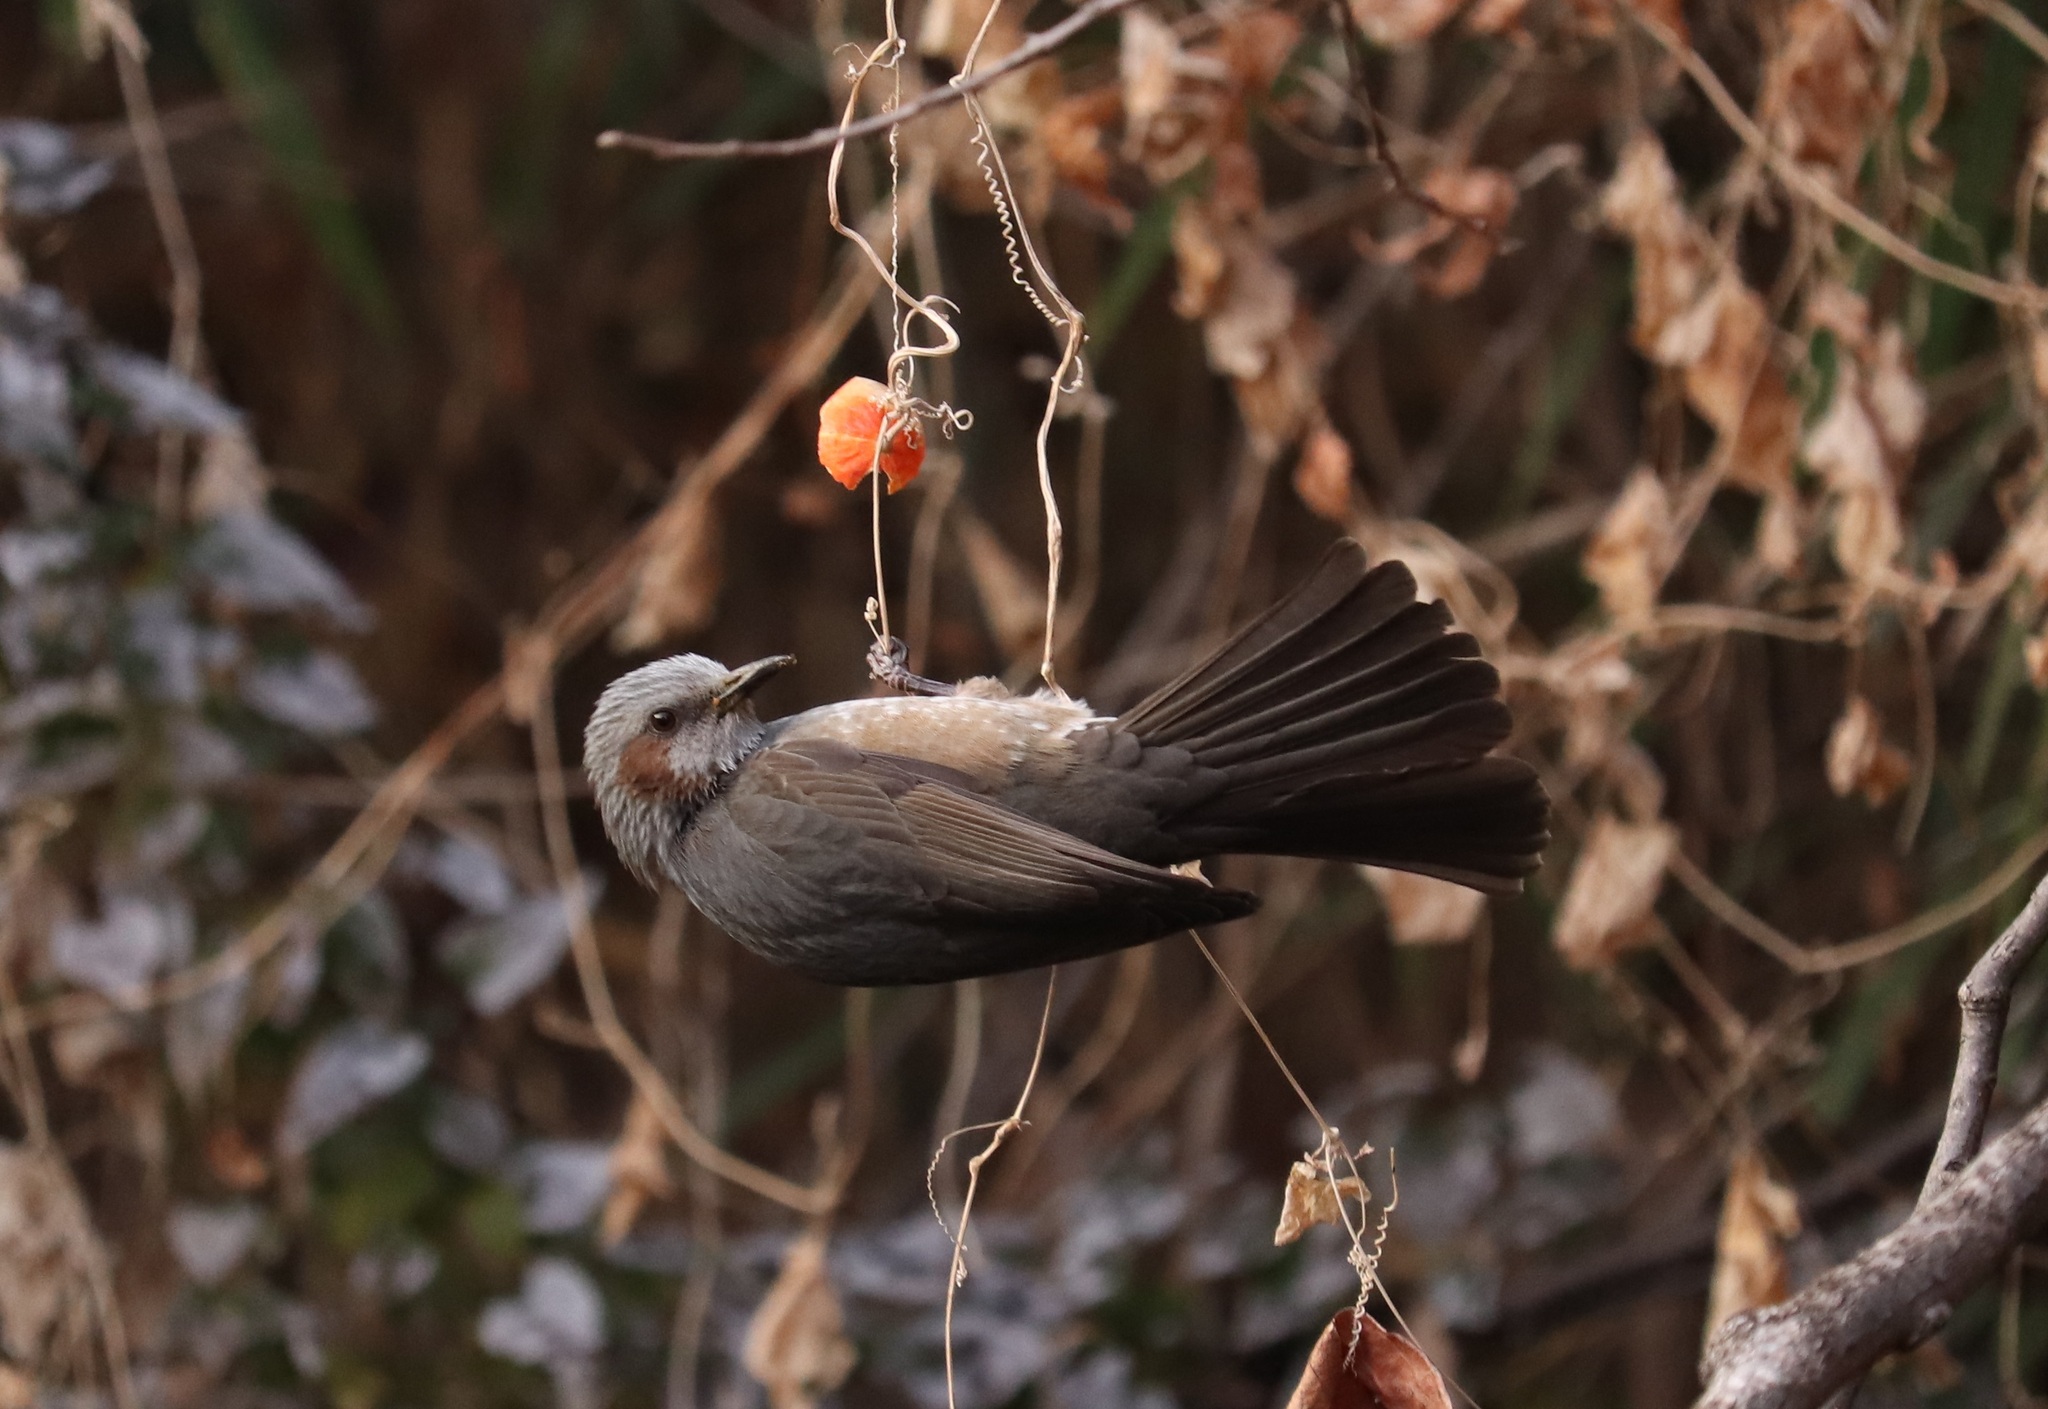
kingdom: Animalia
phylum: Chordata
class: Aves
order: Passeriformes
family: Pycnonotidae
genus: Hypsipetes
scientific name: Hypsipetes amaurotis
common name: Brown-eared bulbul
